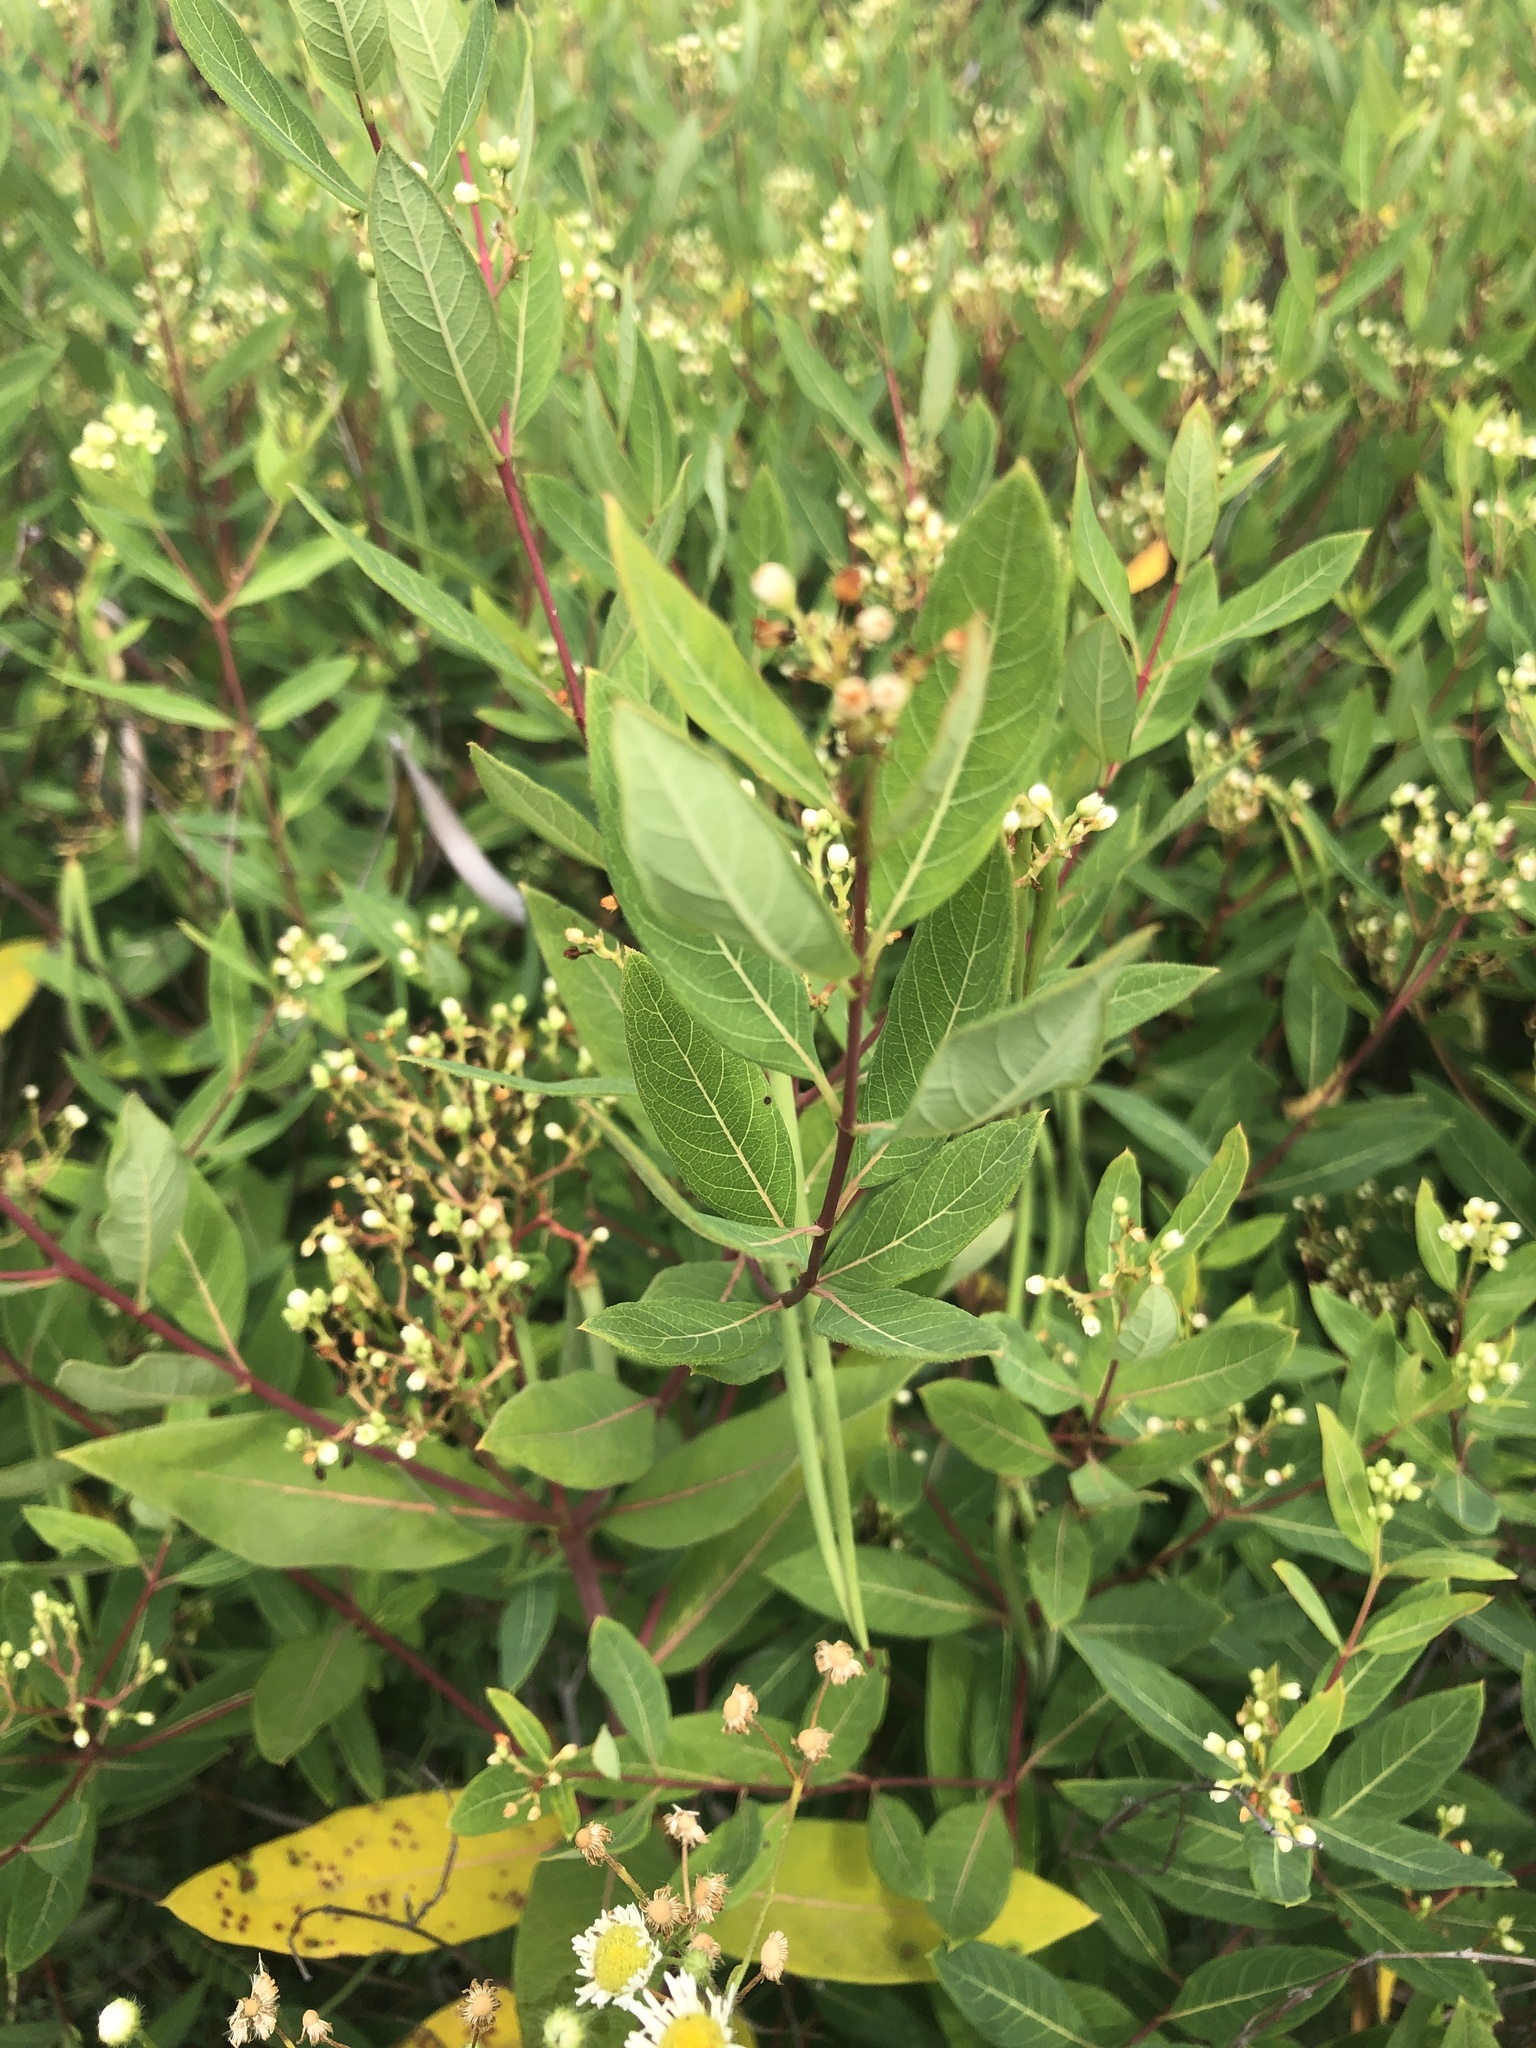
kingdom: Plantae
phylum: Tracheophyta
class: Magnoliopsida
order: Gentianales
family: Apocynaceae
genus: Apocynum
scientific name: Apocynum cannabinum
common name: Hemp dogbane
